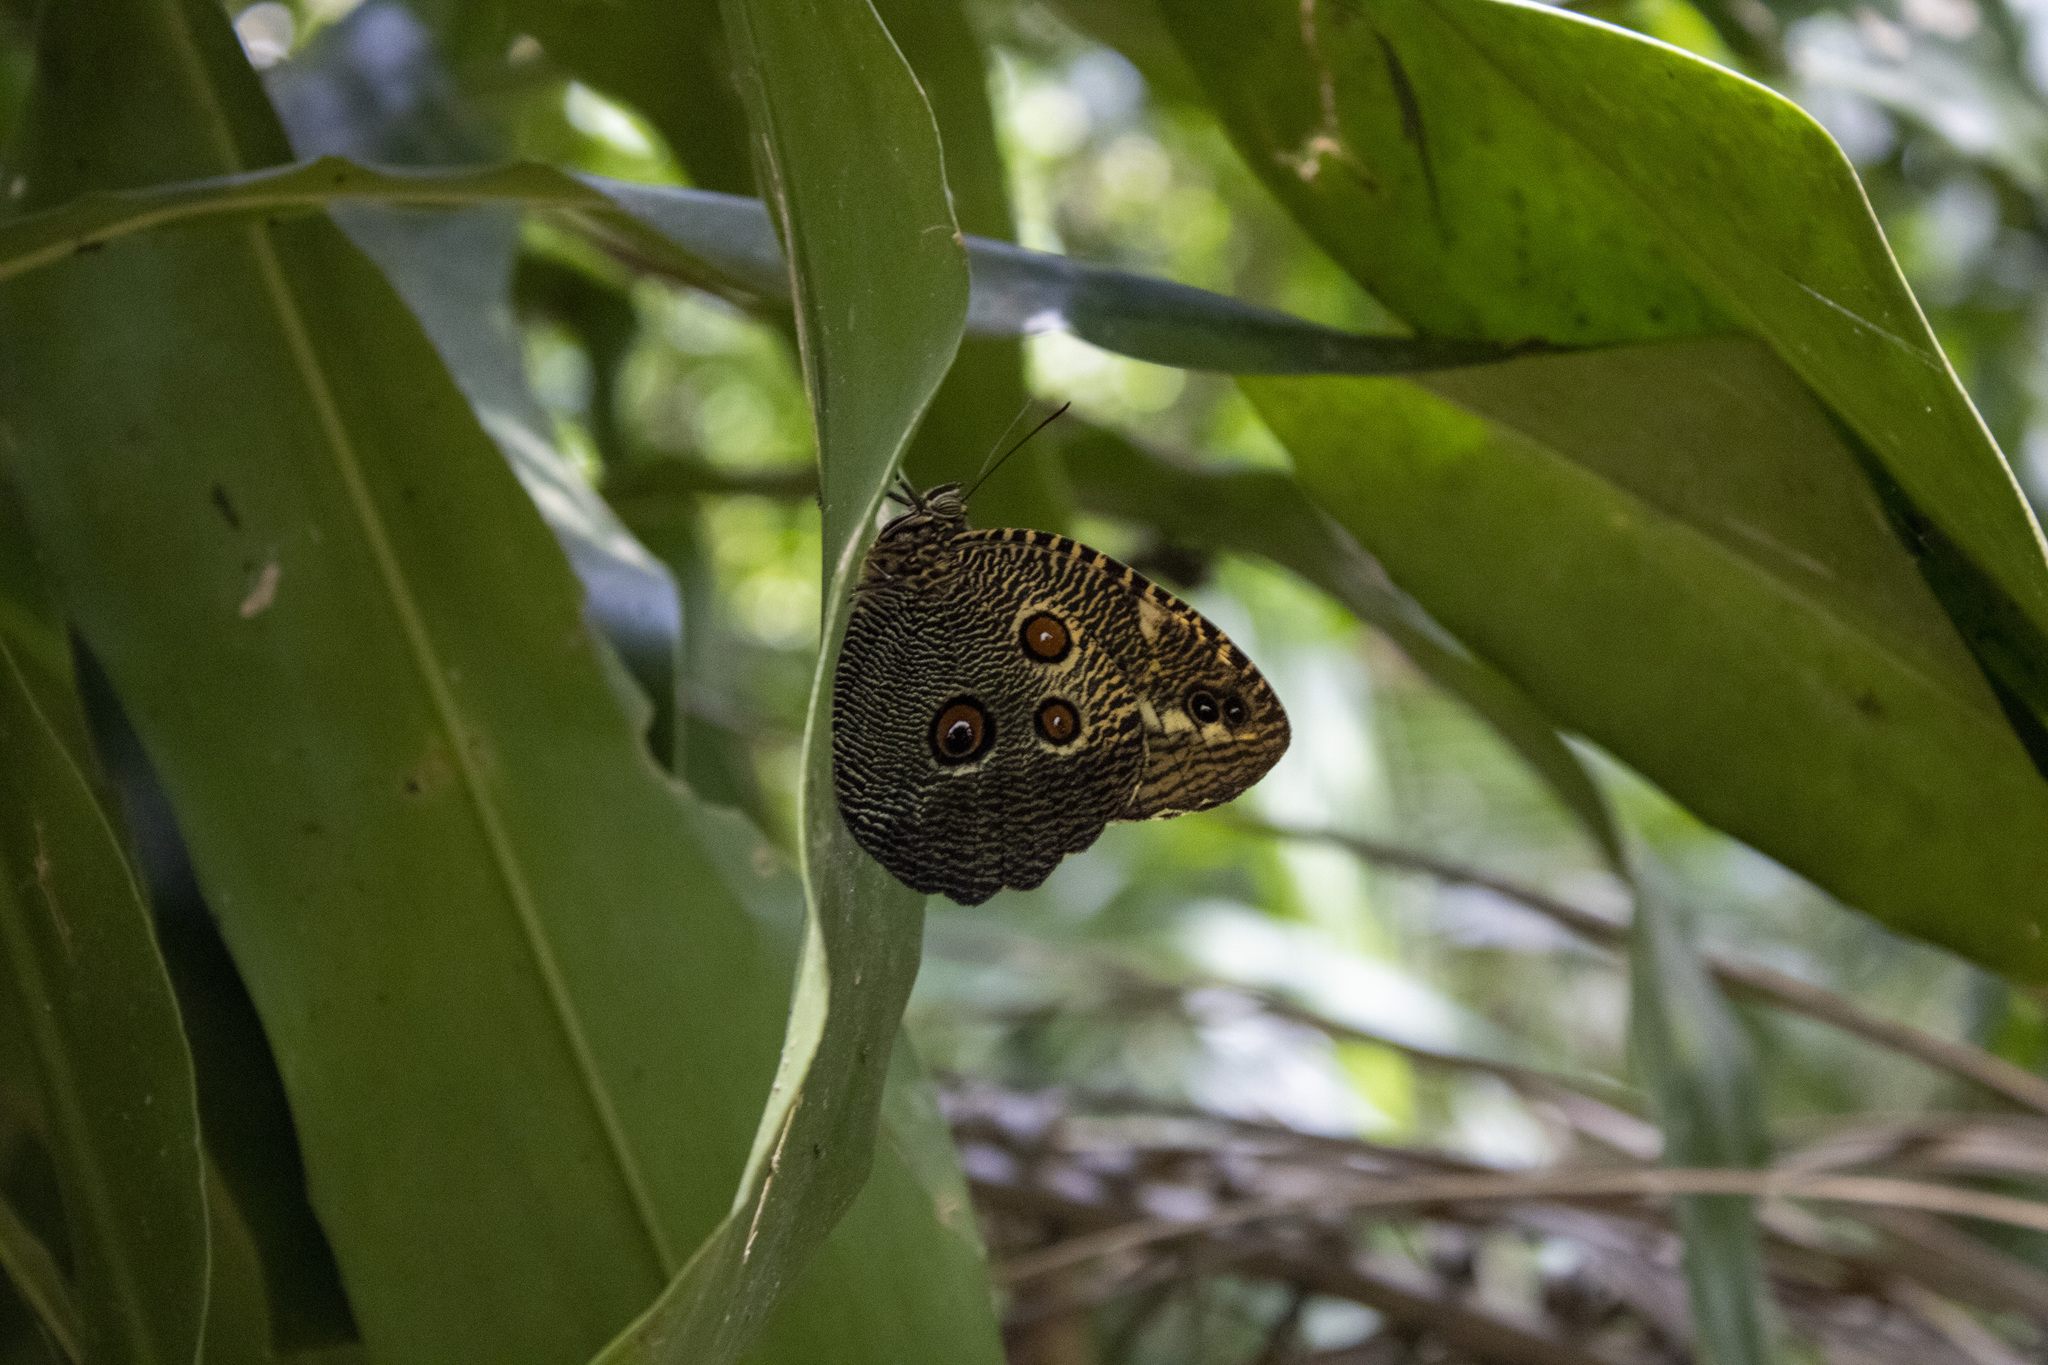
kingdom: Animalia
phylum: Arthropoda
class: Insecta
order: Lepidoptera
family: Nymphalidae
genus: Dasyophthalma
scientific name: Dasyophthalma creusa
